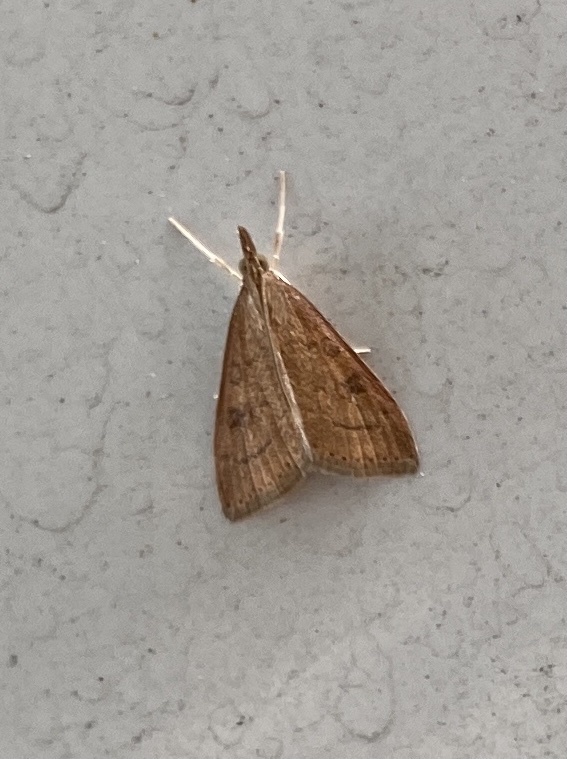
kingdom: Animalia
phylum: Arthropoda
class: Insecta
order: Lepidoptera
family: Crambidae
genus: Udea
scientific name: Udea rubigalis
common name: Celery leaftier moth
